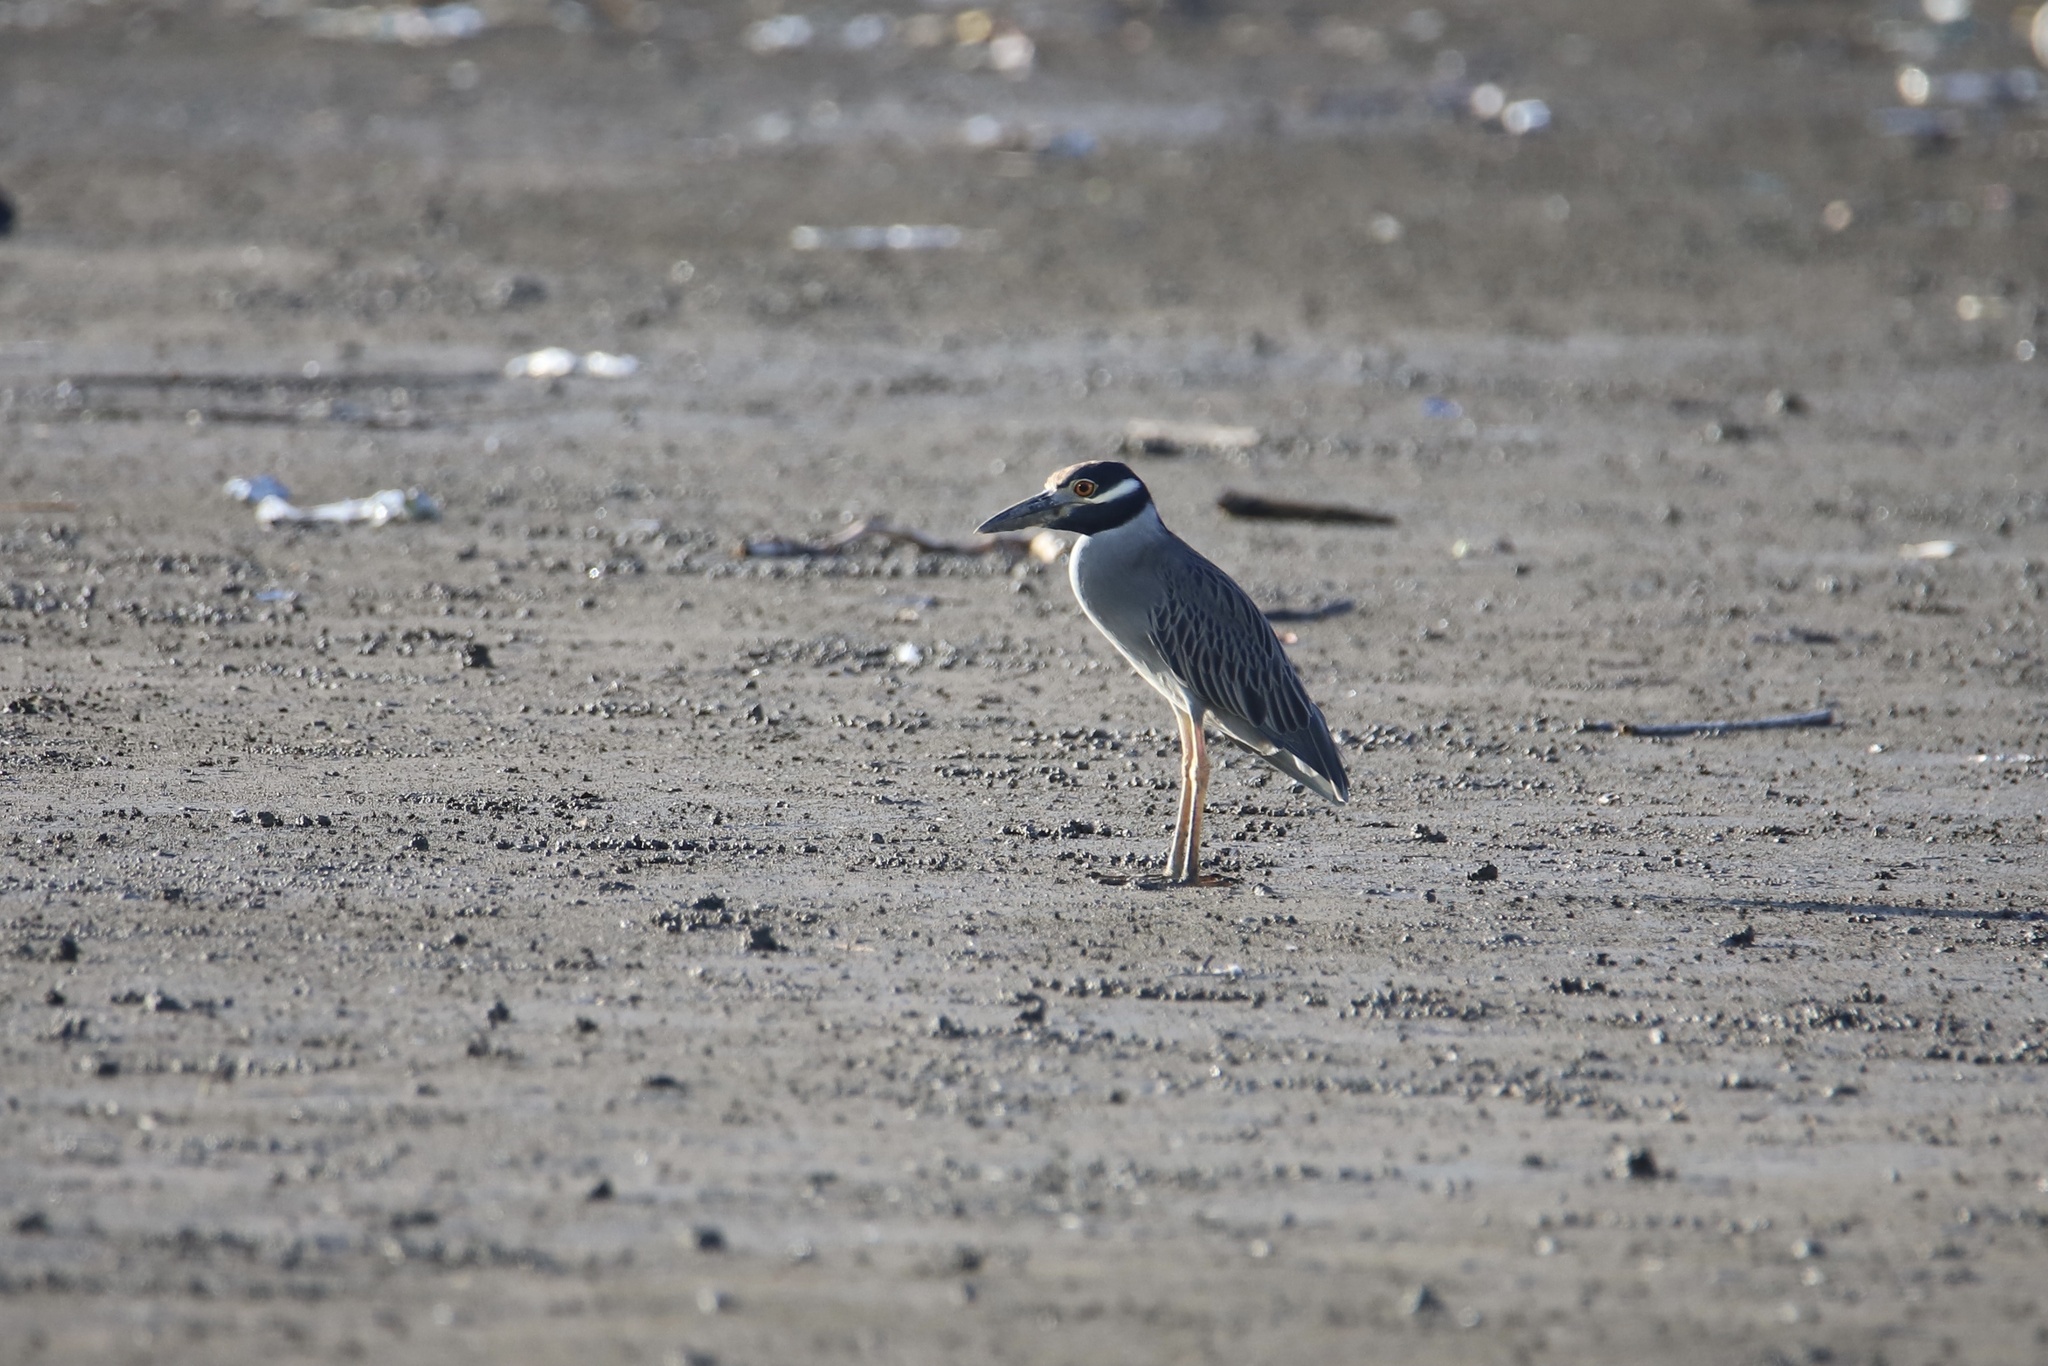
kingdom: Animalia
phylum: Chordata
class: Aves
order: Pelecaniformes
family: Ardeidae
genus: Nyctanassa
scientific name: Nyctanassa violacea
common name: Yellow-crowned night heron
